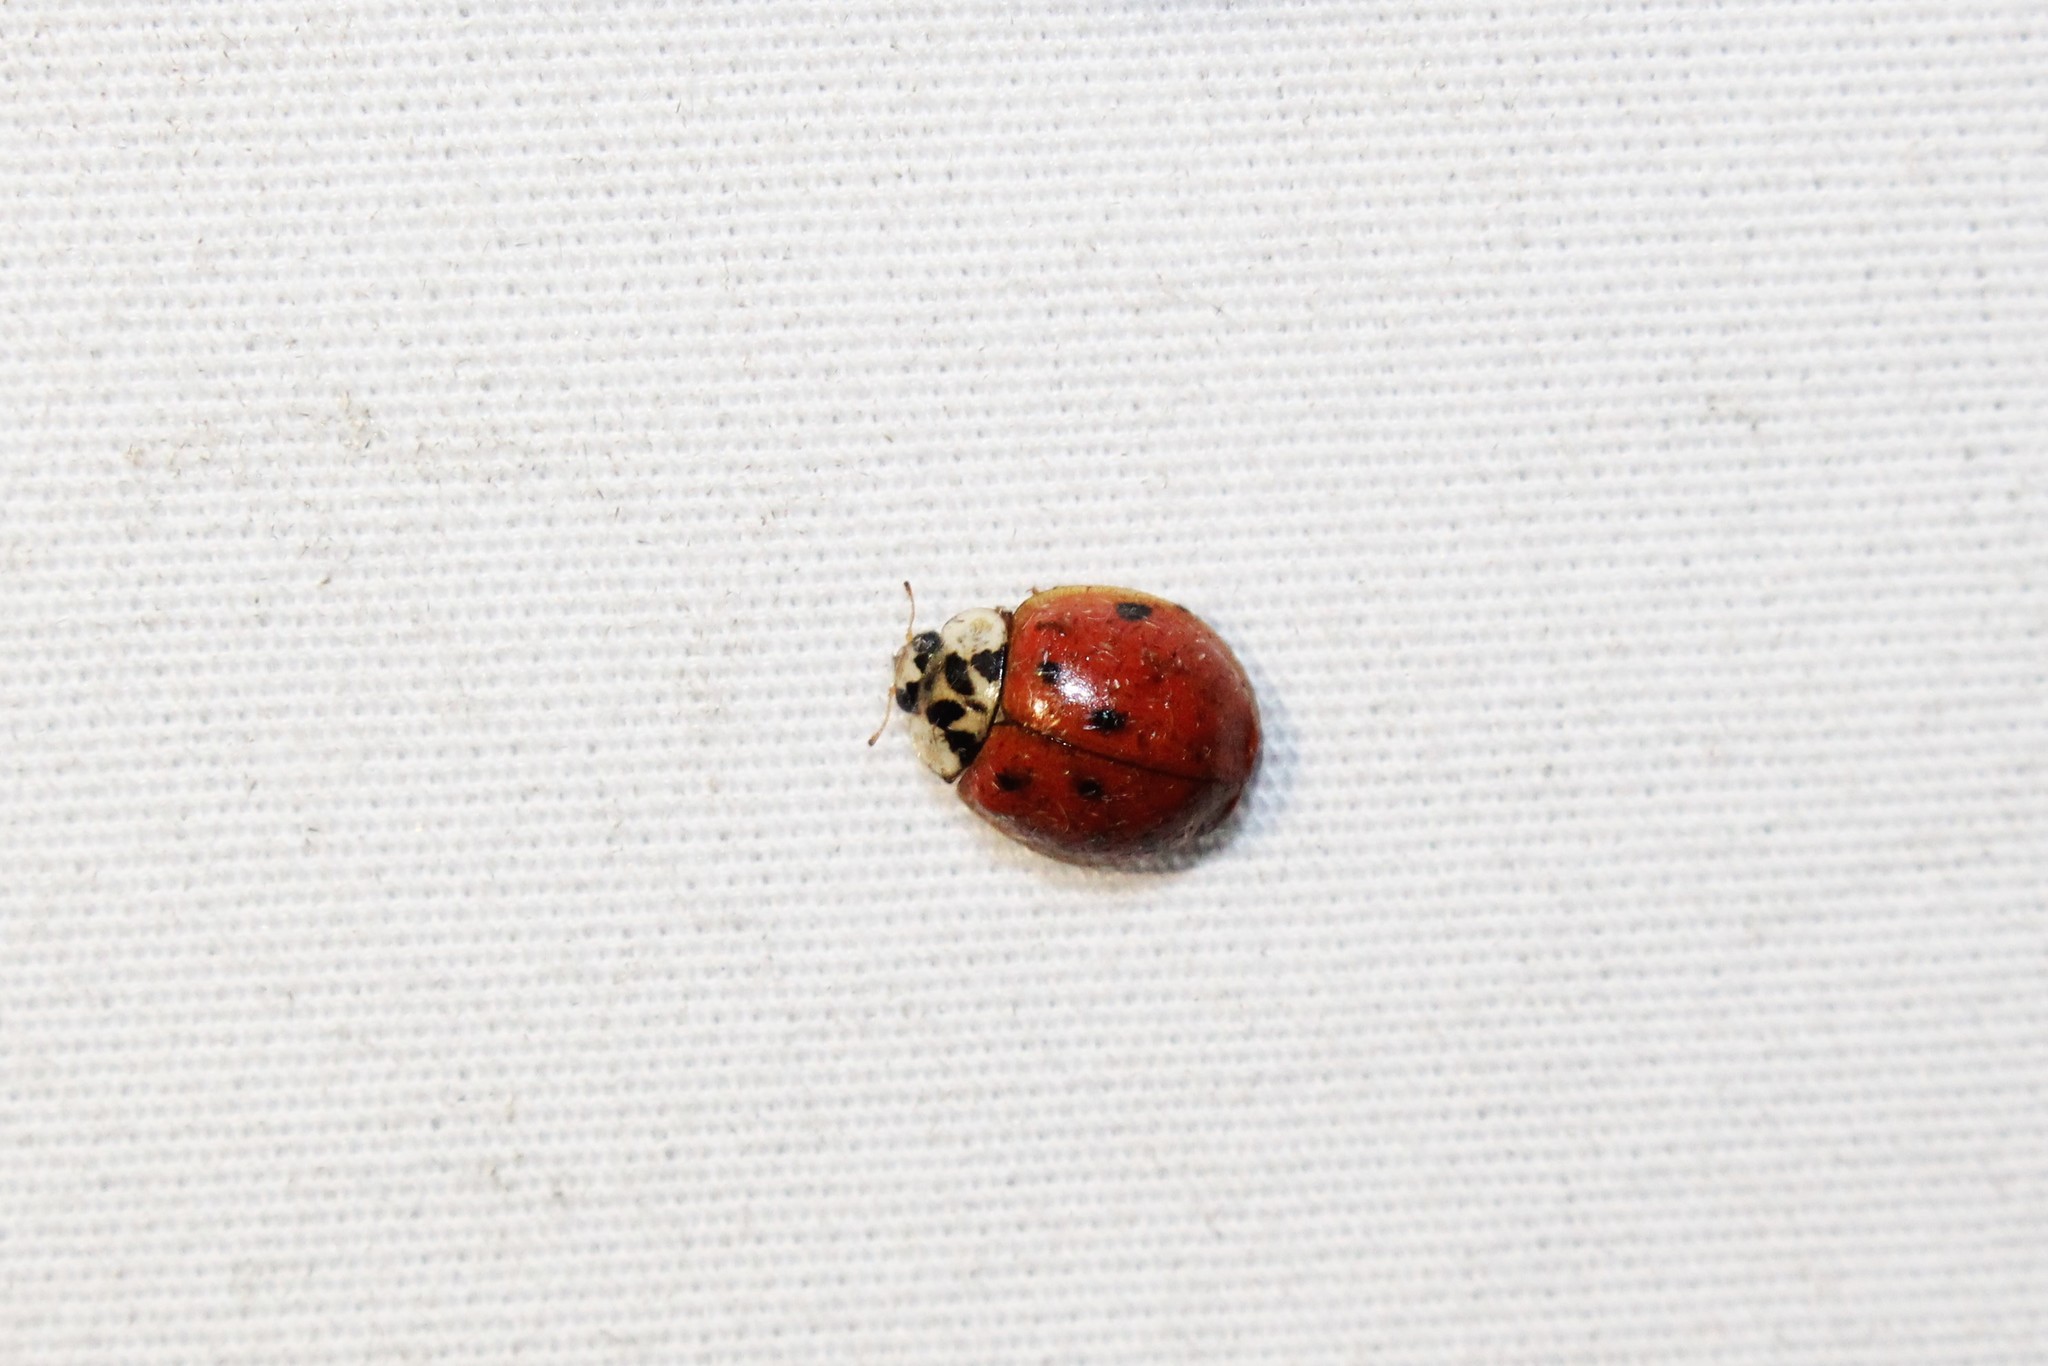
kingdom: Animalia
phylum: Arthropoda
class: Insecta
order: Coleoptera
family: Coccinellidae
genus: Harmonia
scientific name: Harmonia axyridis
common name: Harlequin ladybird
